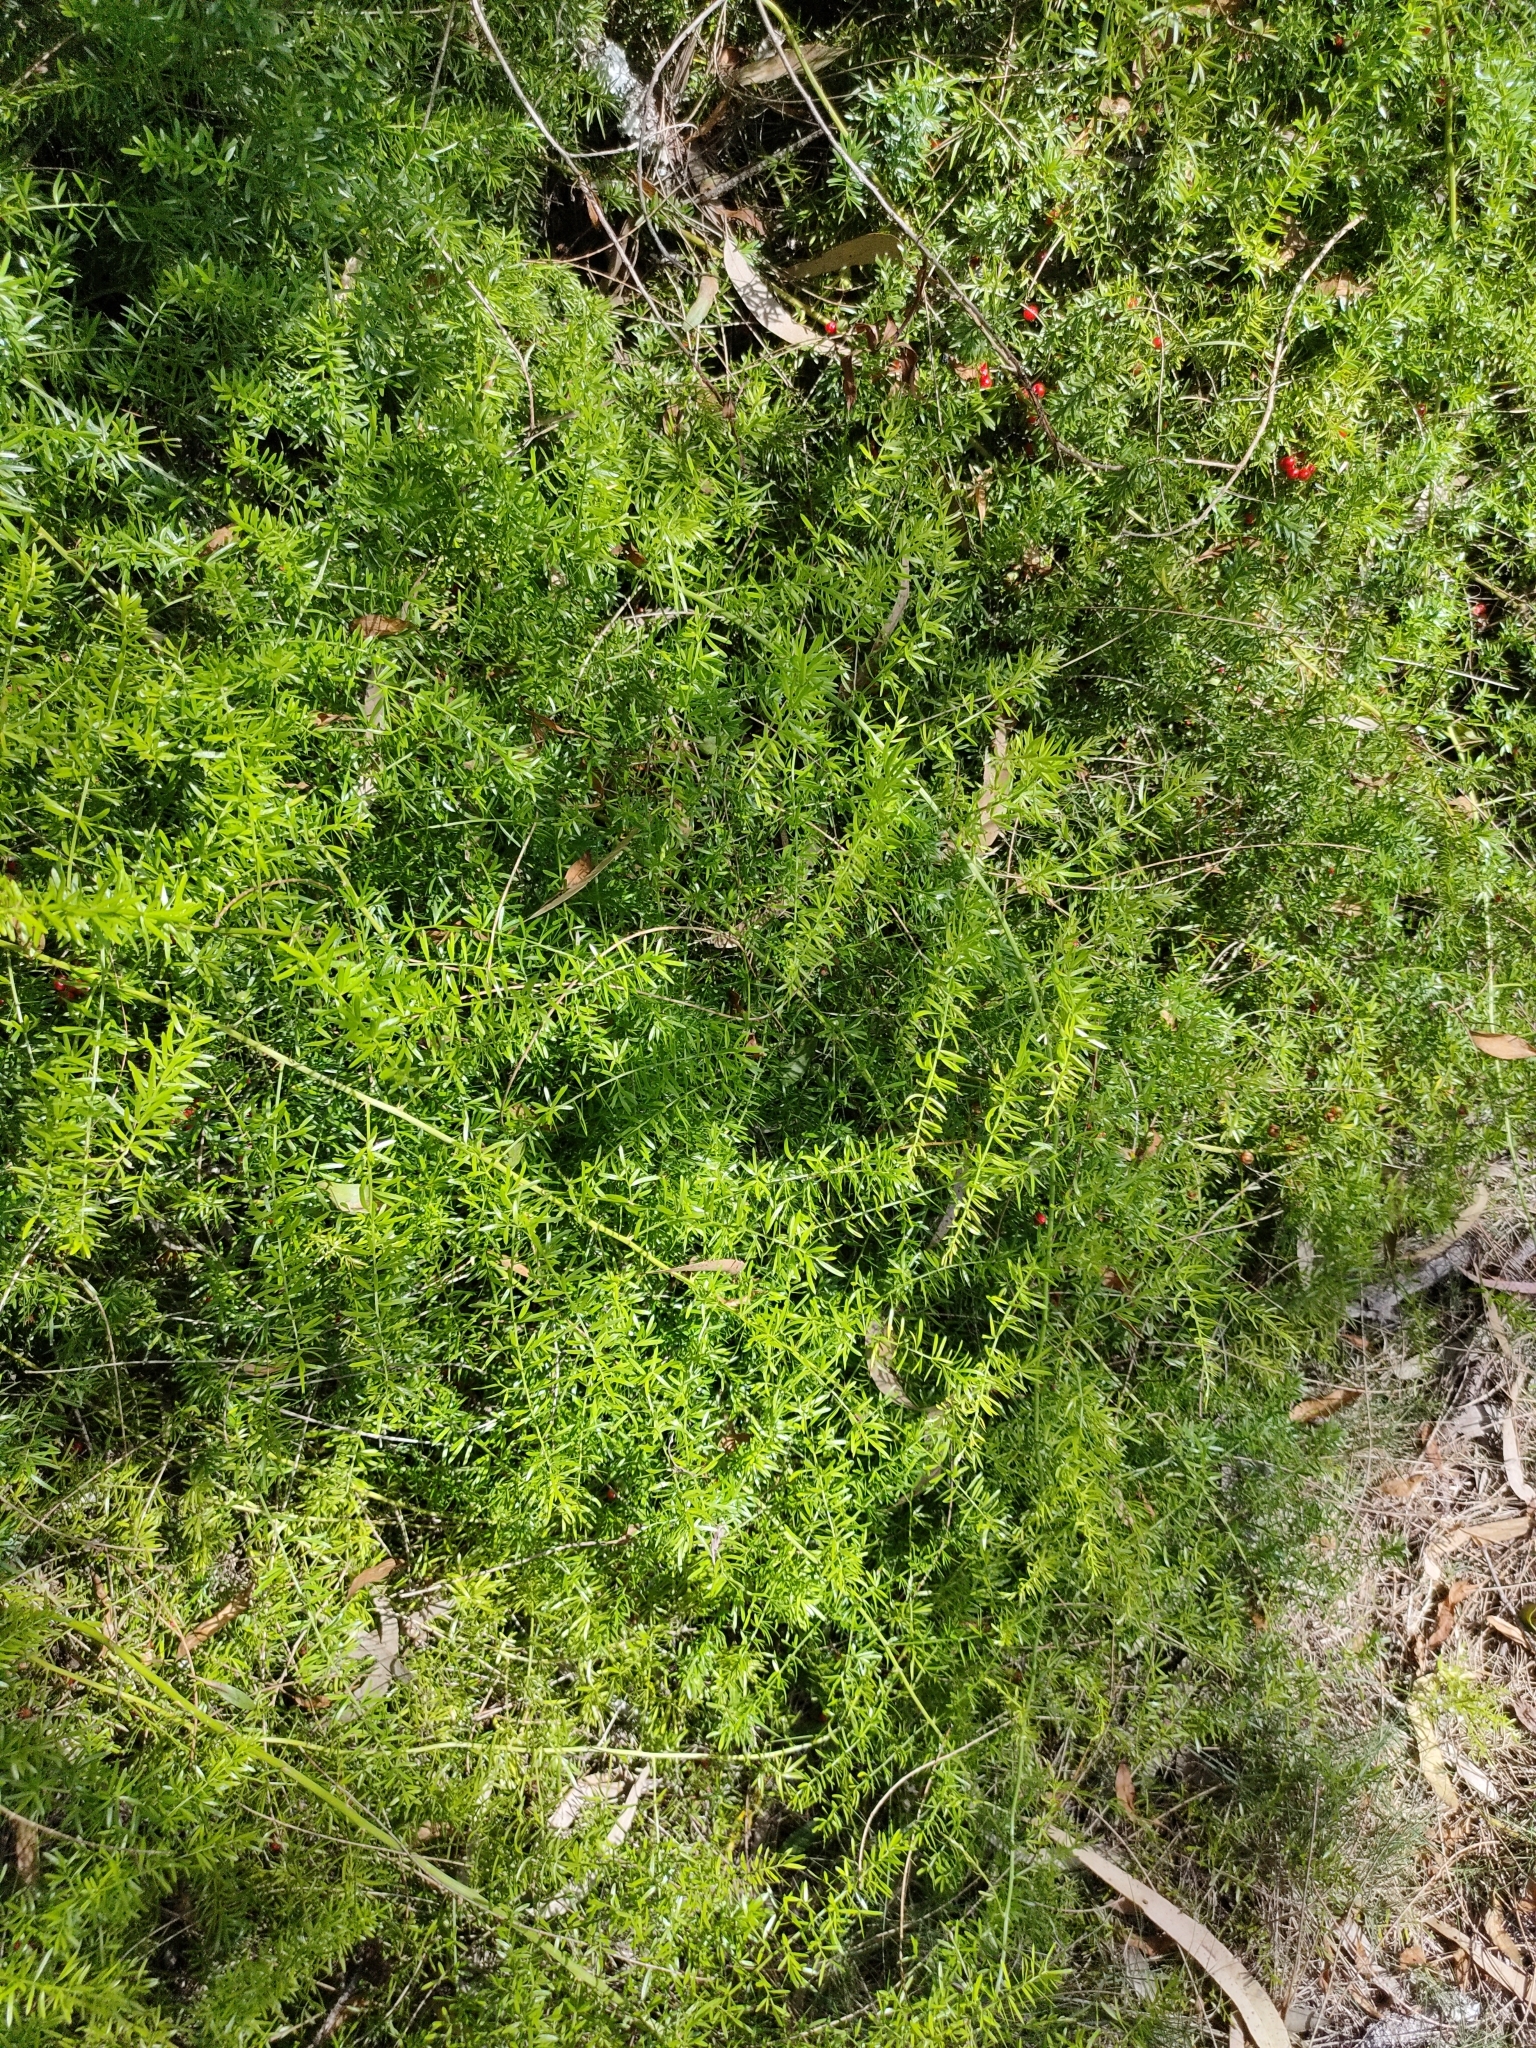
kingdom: Plantae
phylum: Tracheophyta
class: Liliopsida
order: Asparagales
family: Asparagaceae
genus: Asparagus
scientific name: Asparagus aethiopicus
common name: Sprenger's asparagus fern
